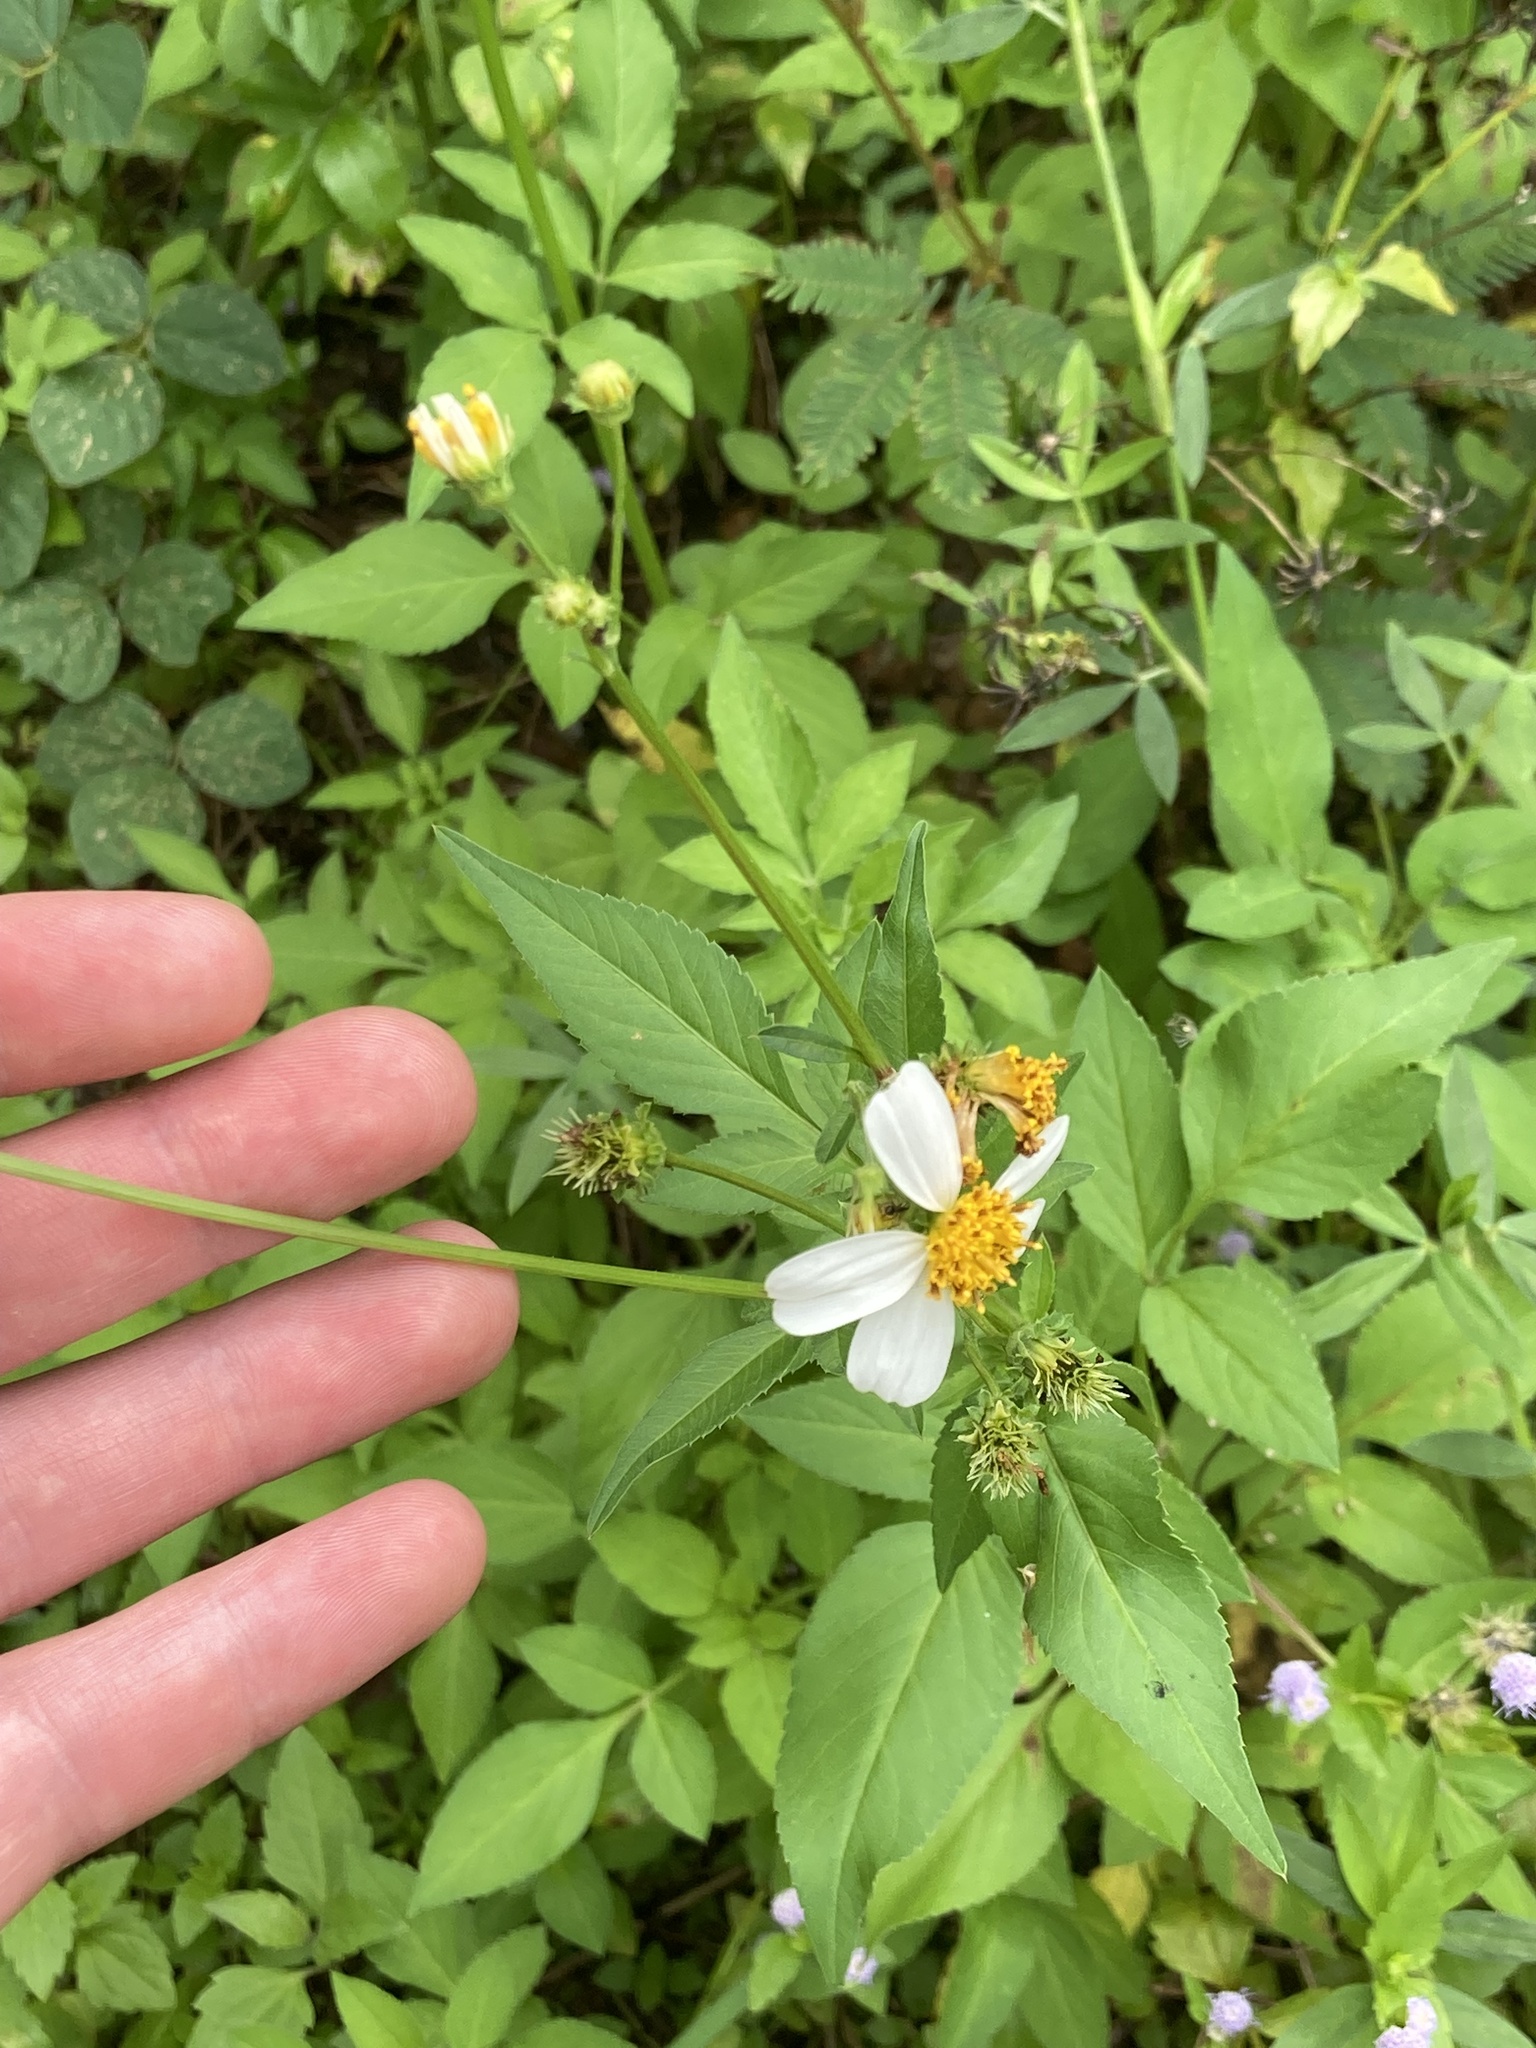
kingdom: Plantae
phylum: Tracheophyta
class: Magnoliopsida
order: Asterales
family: Asteraceae
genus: Bidens
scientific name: Bidens pilosa
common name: Black-jack
